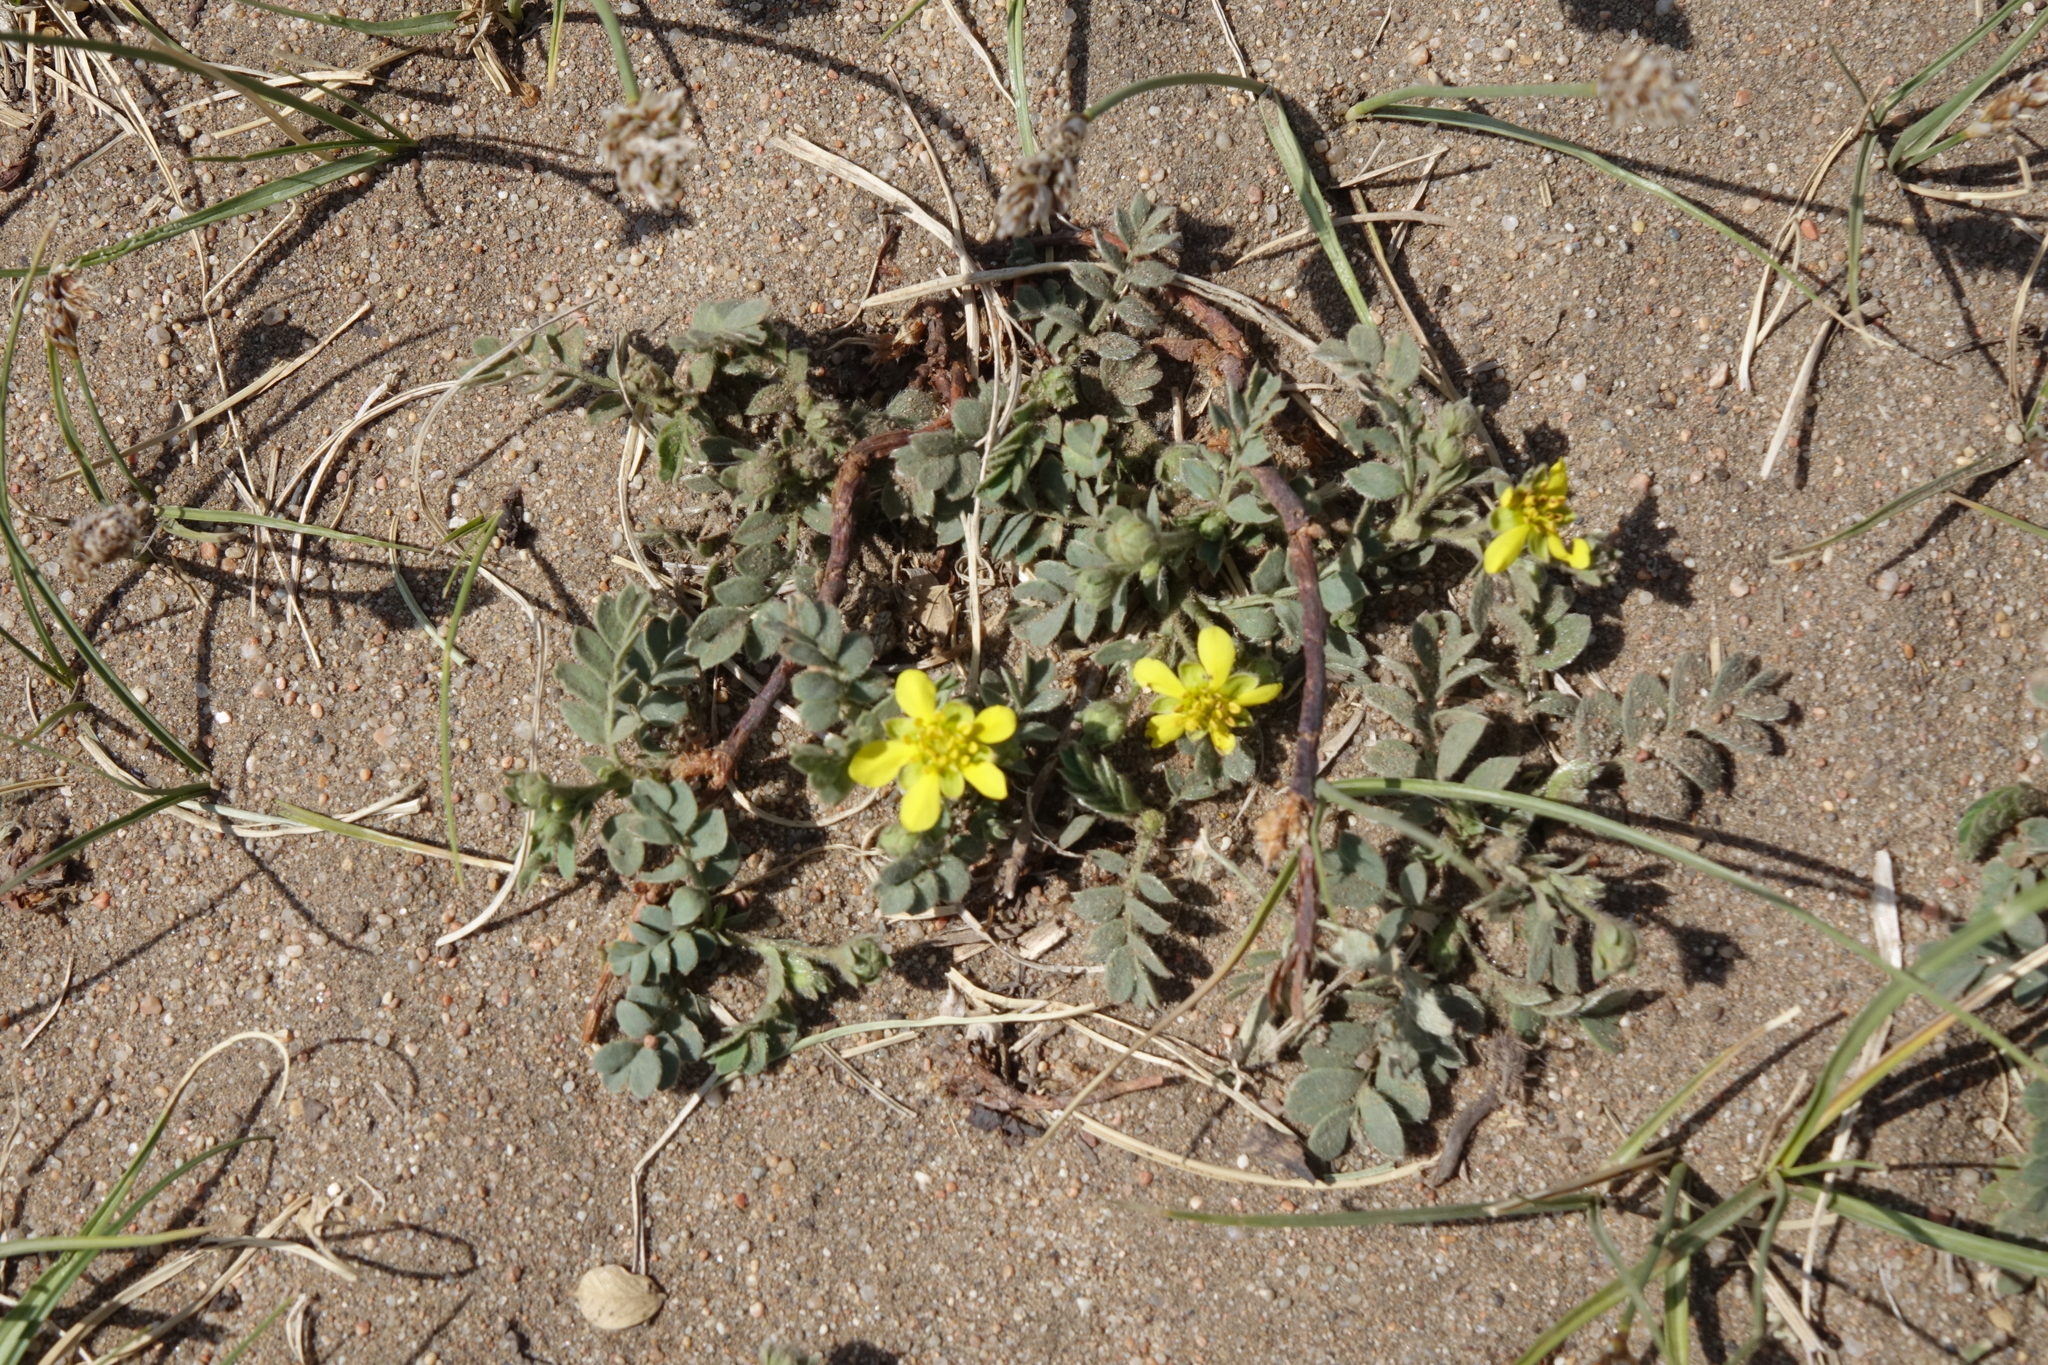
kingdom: Plantae
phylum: Tracheophyta
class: Magnoliopsida
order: Rosales
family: Rosaceae
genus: Sibbaldianthe
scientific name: Sibbaldianthe bifurca
